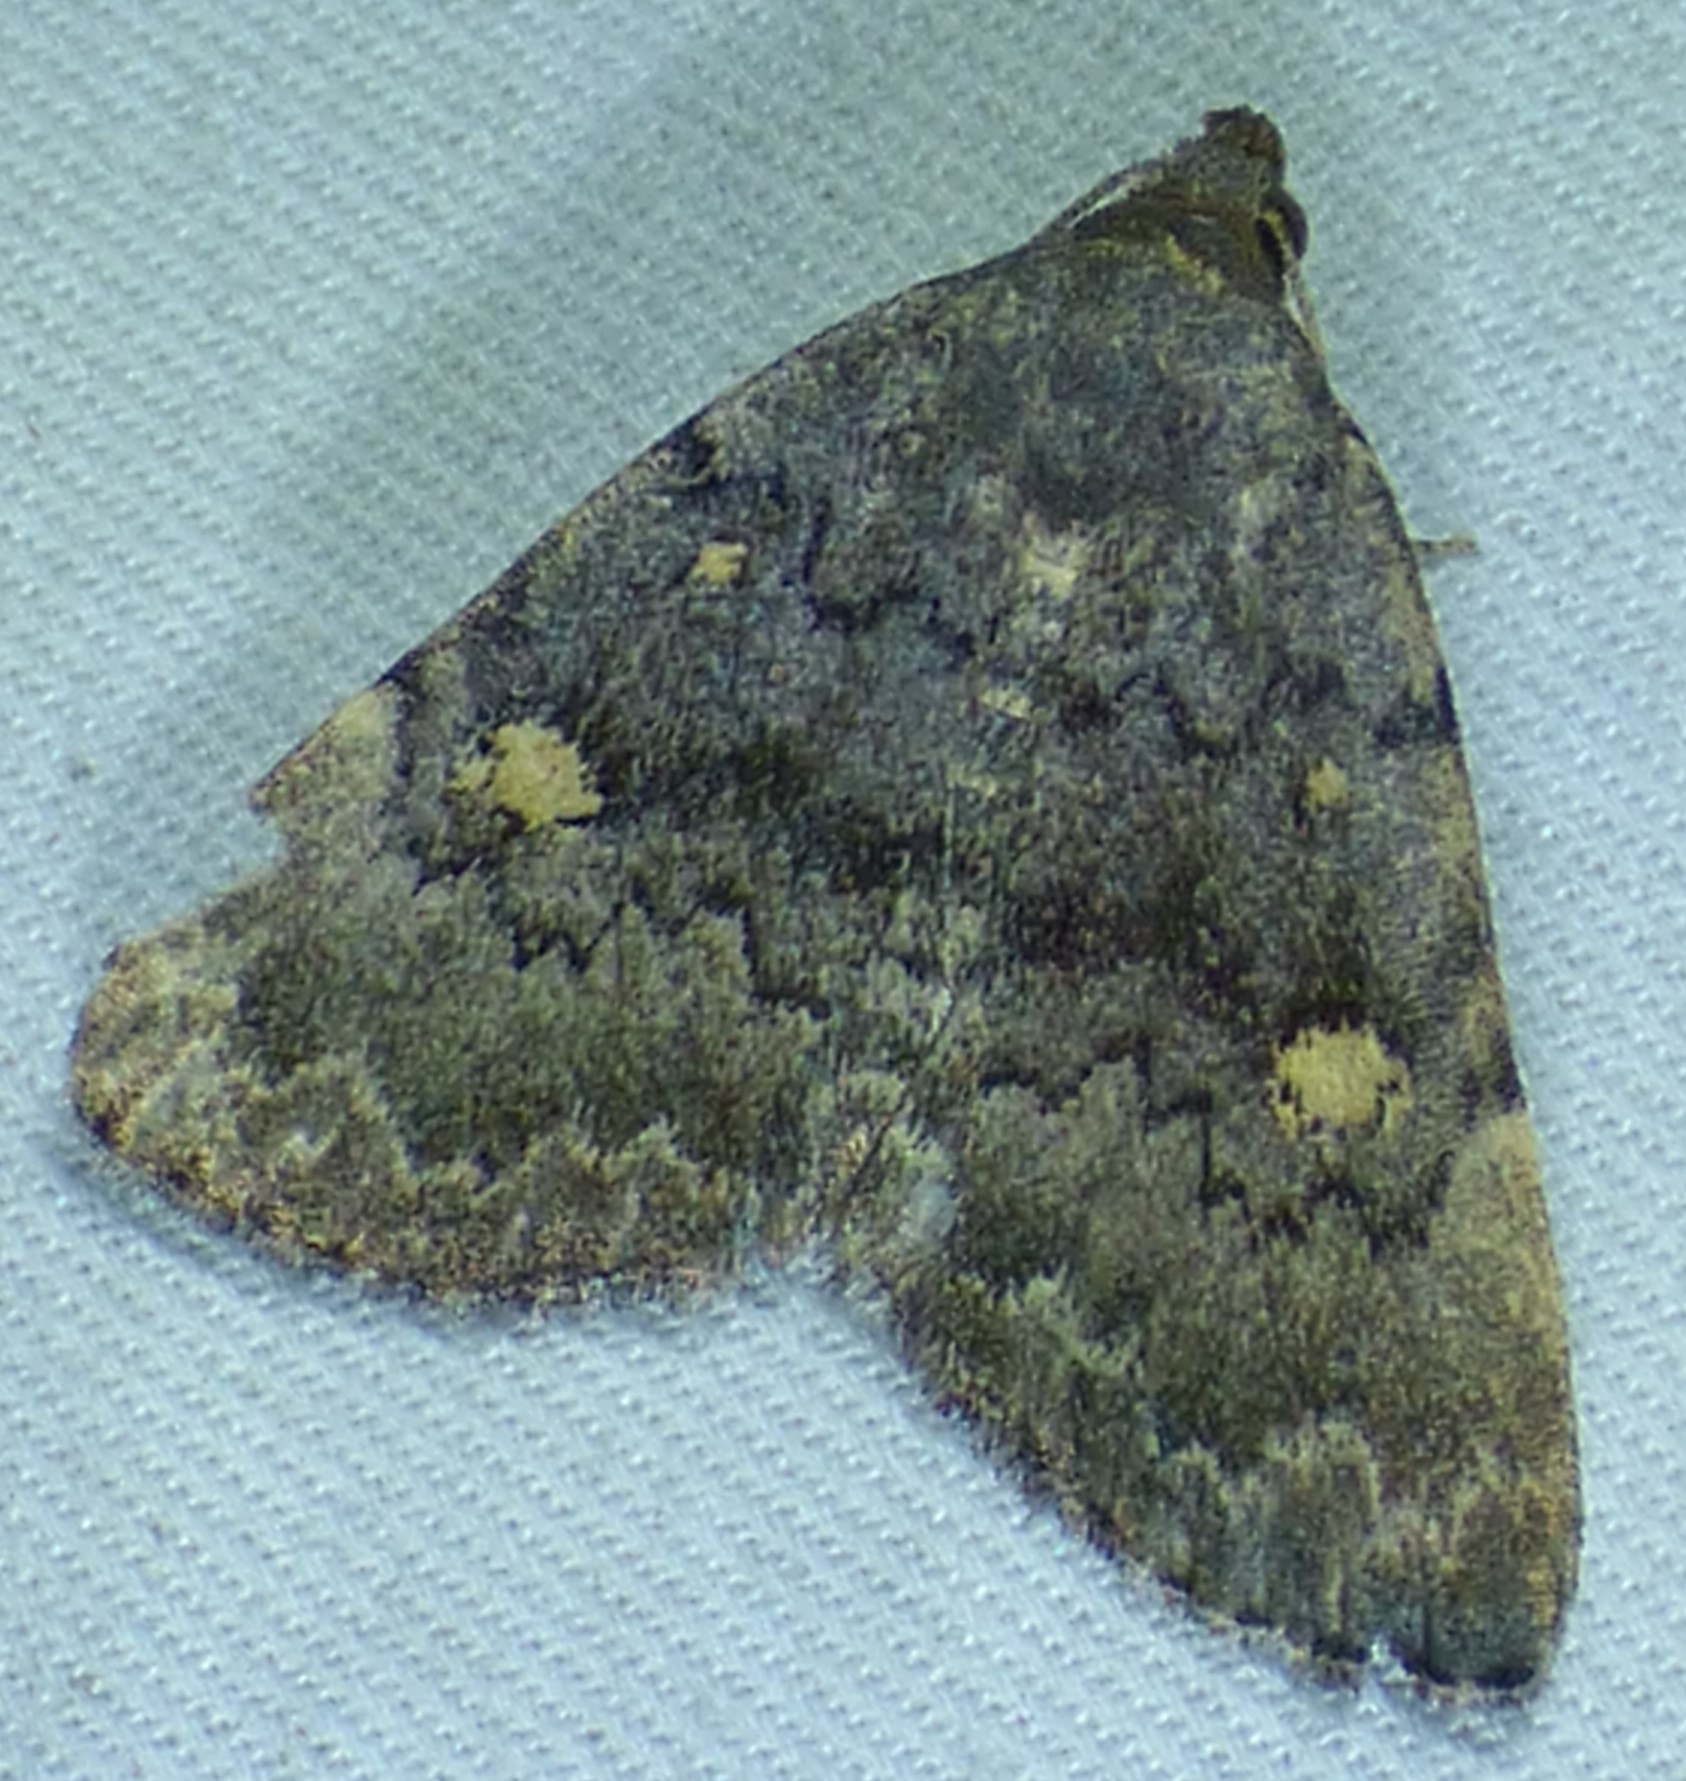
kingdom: Animalia
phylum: Arthropoda
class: Insecta
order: Lepidoptera
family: Erebidae
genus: Idia
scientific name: Idia aemula
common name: Common idia moth
